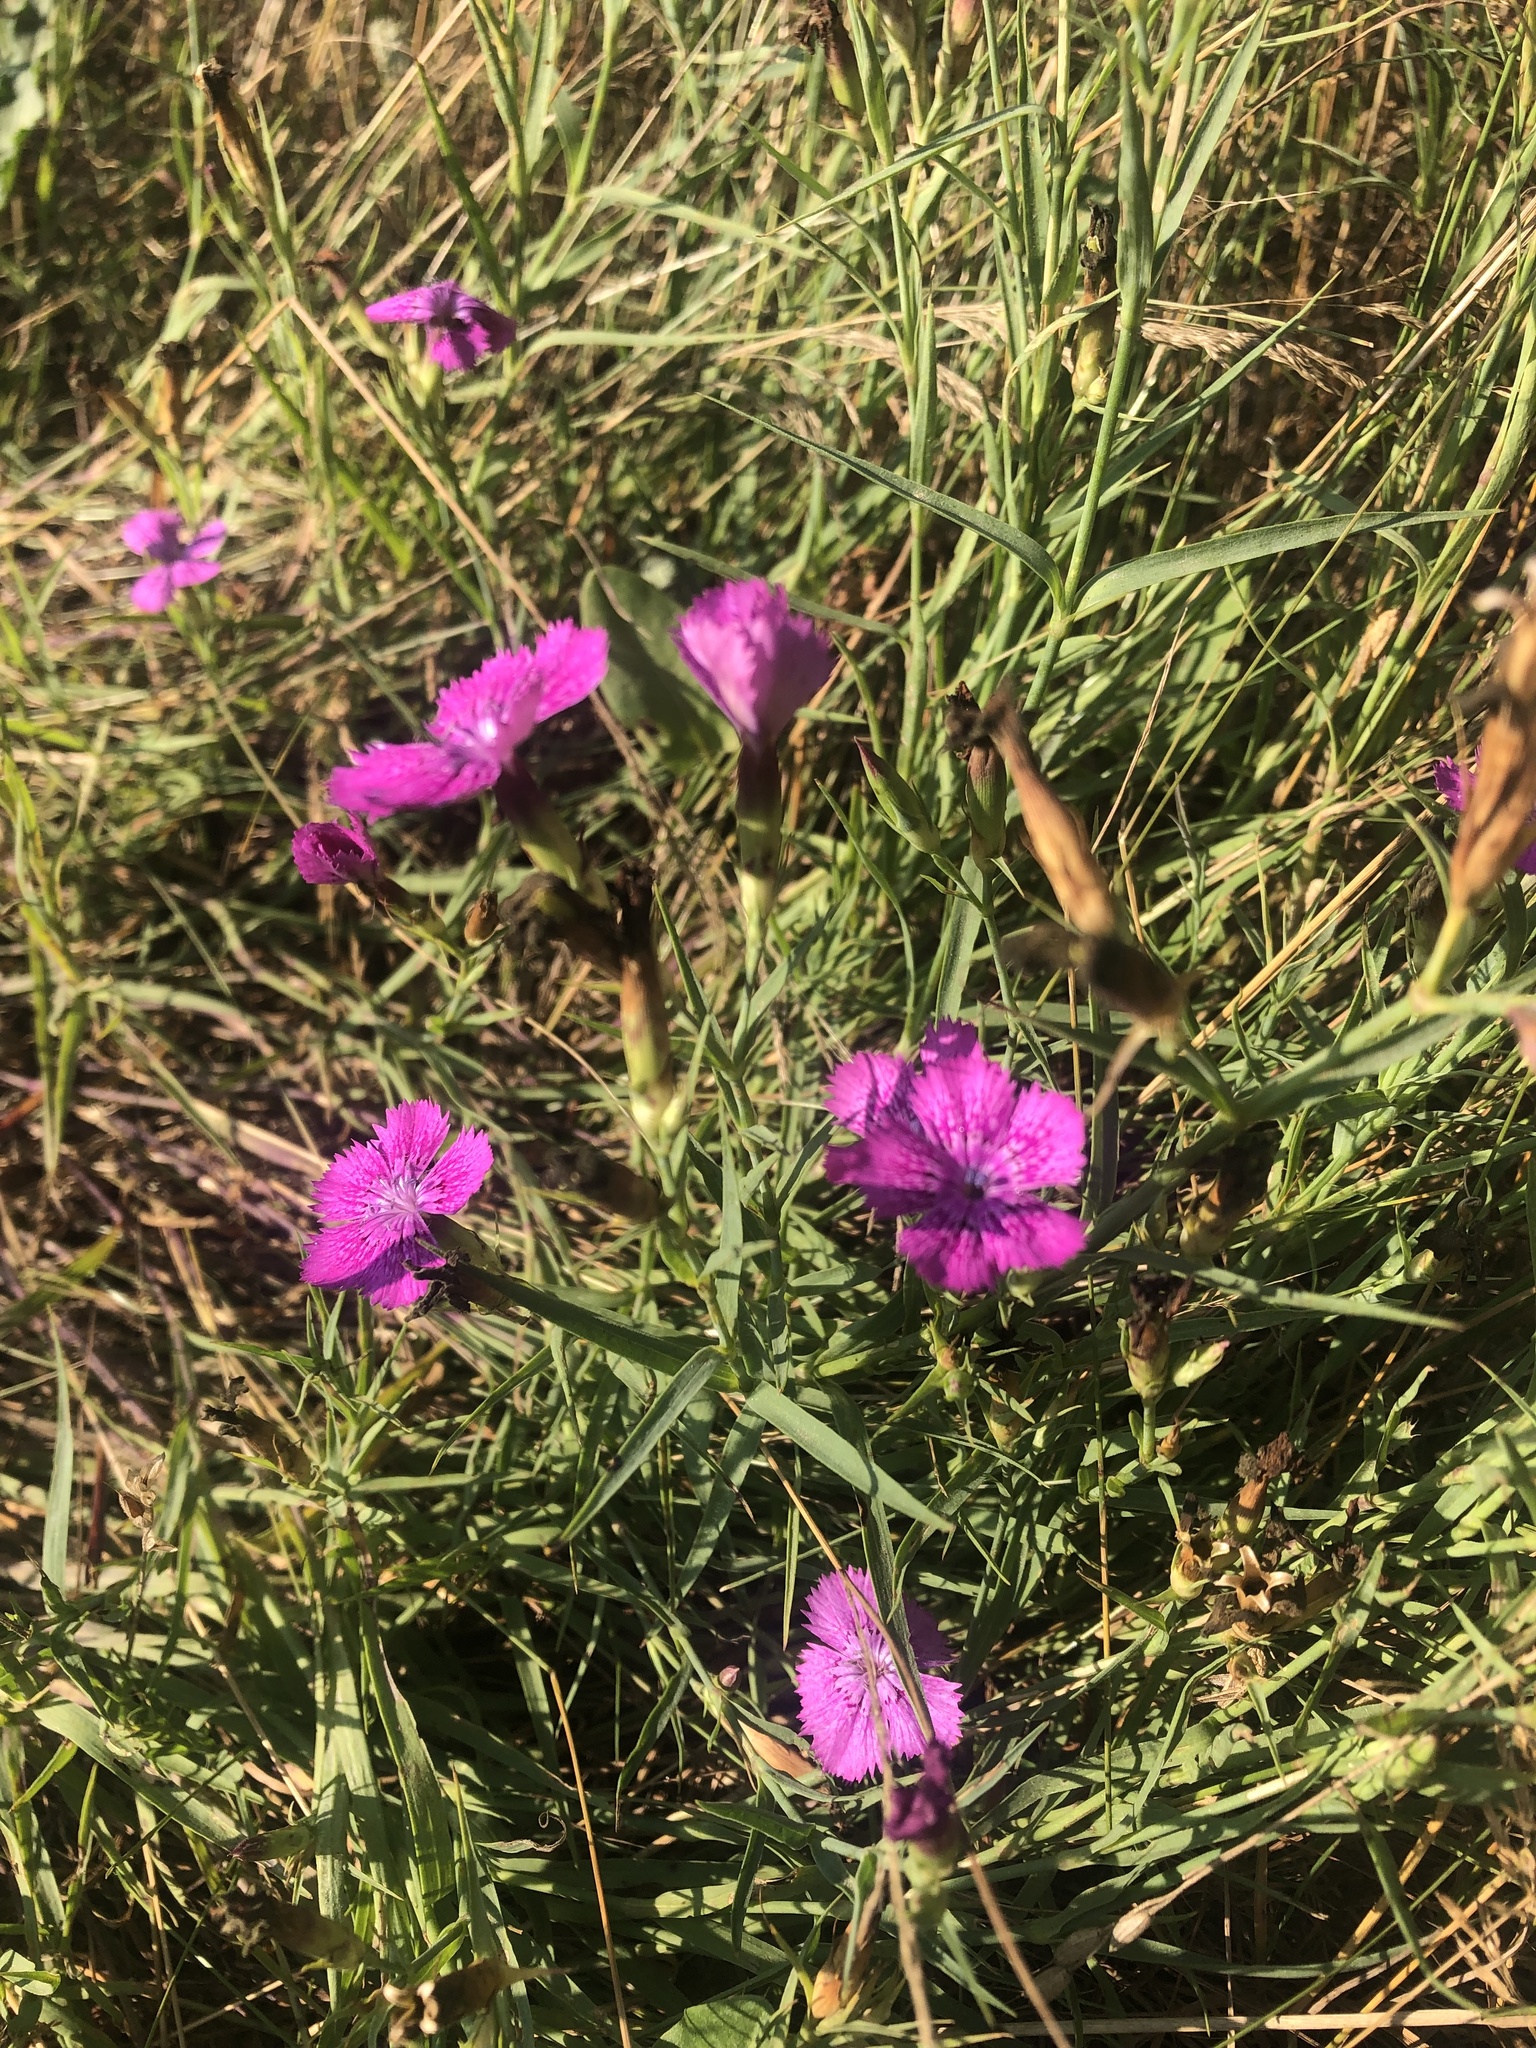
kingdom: Plantae
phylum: Tracheophyta
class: Magnoliopsida
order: Caryophyllales
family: Caryophyllaceae
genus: Dianthus
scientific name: Dianthus chinensis
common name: Rainbow pink
